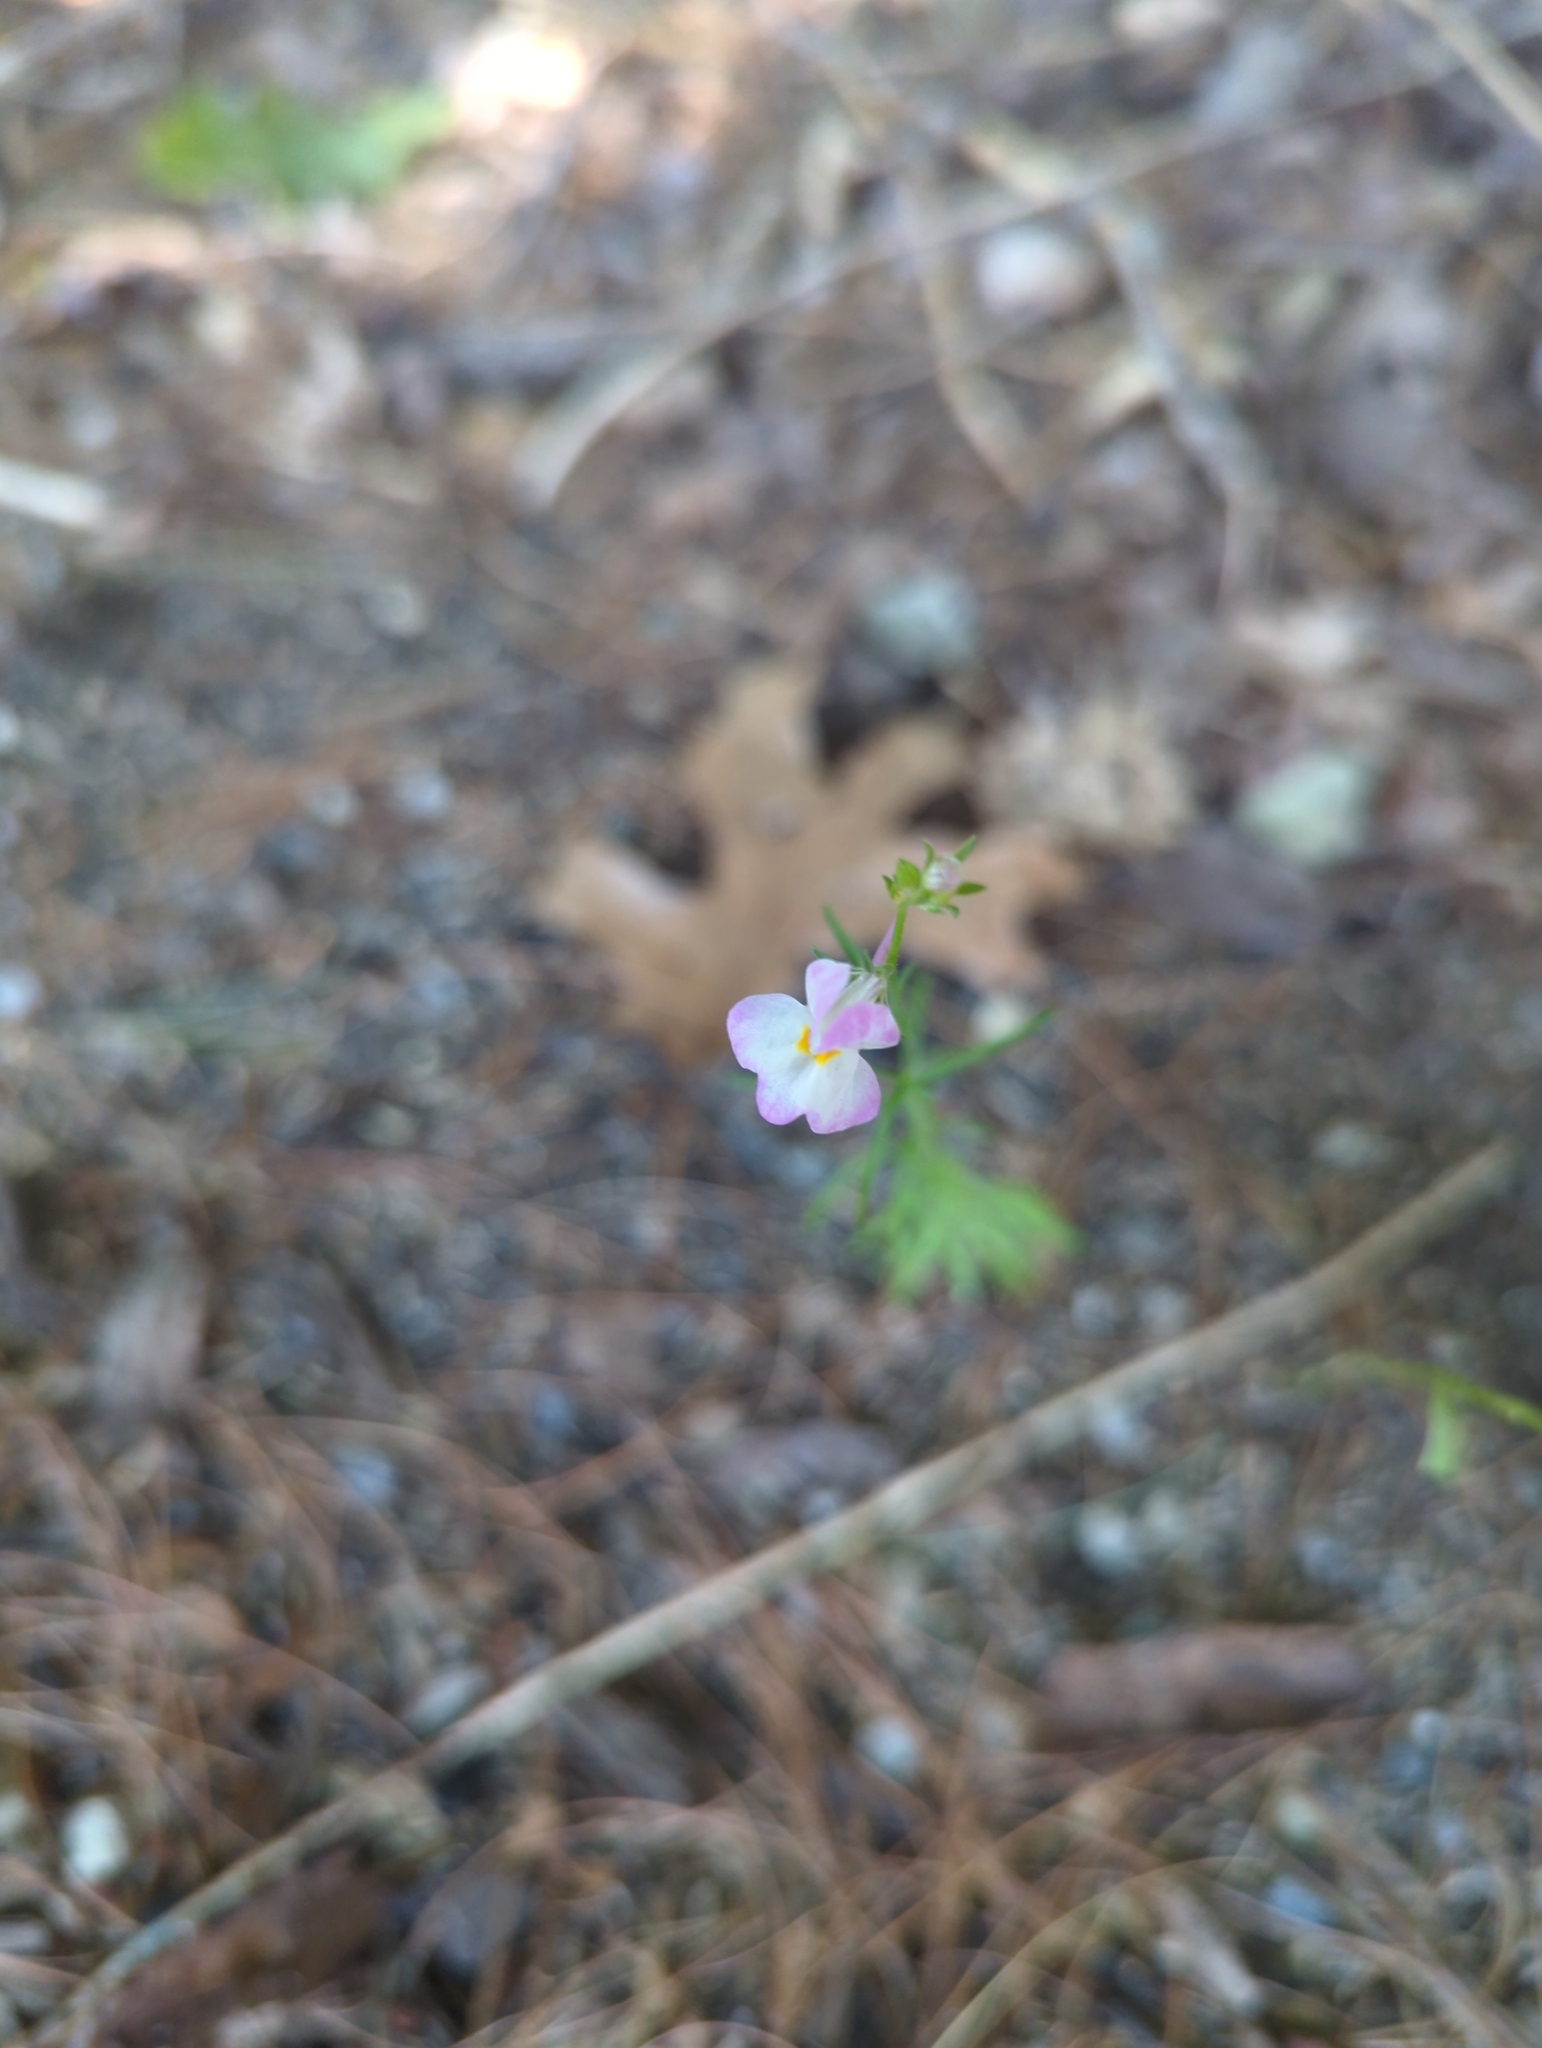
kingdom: Plantae
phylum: Tracheophyta
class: Magnoliopsida
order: Lamiales
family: Plantaginaceae
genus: Nuttallanthus
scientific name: Nuttallanthus canadensis
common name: Blue toadflax
